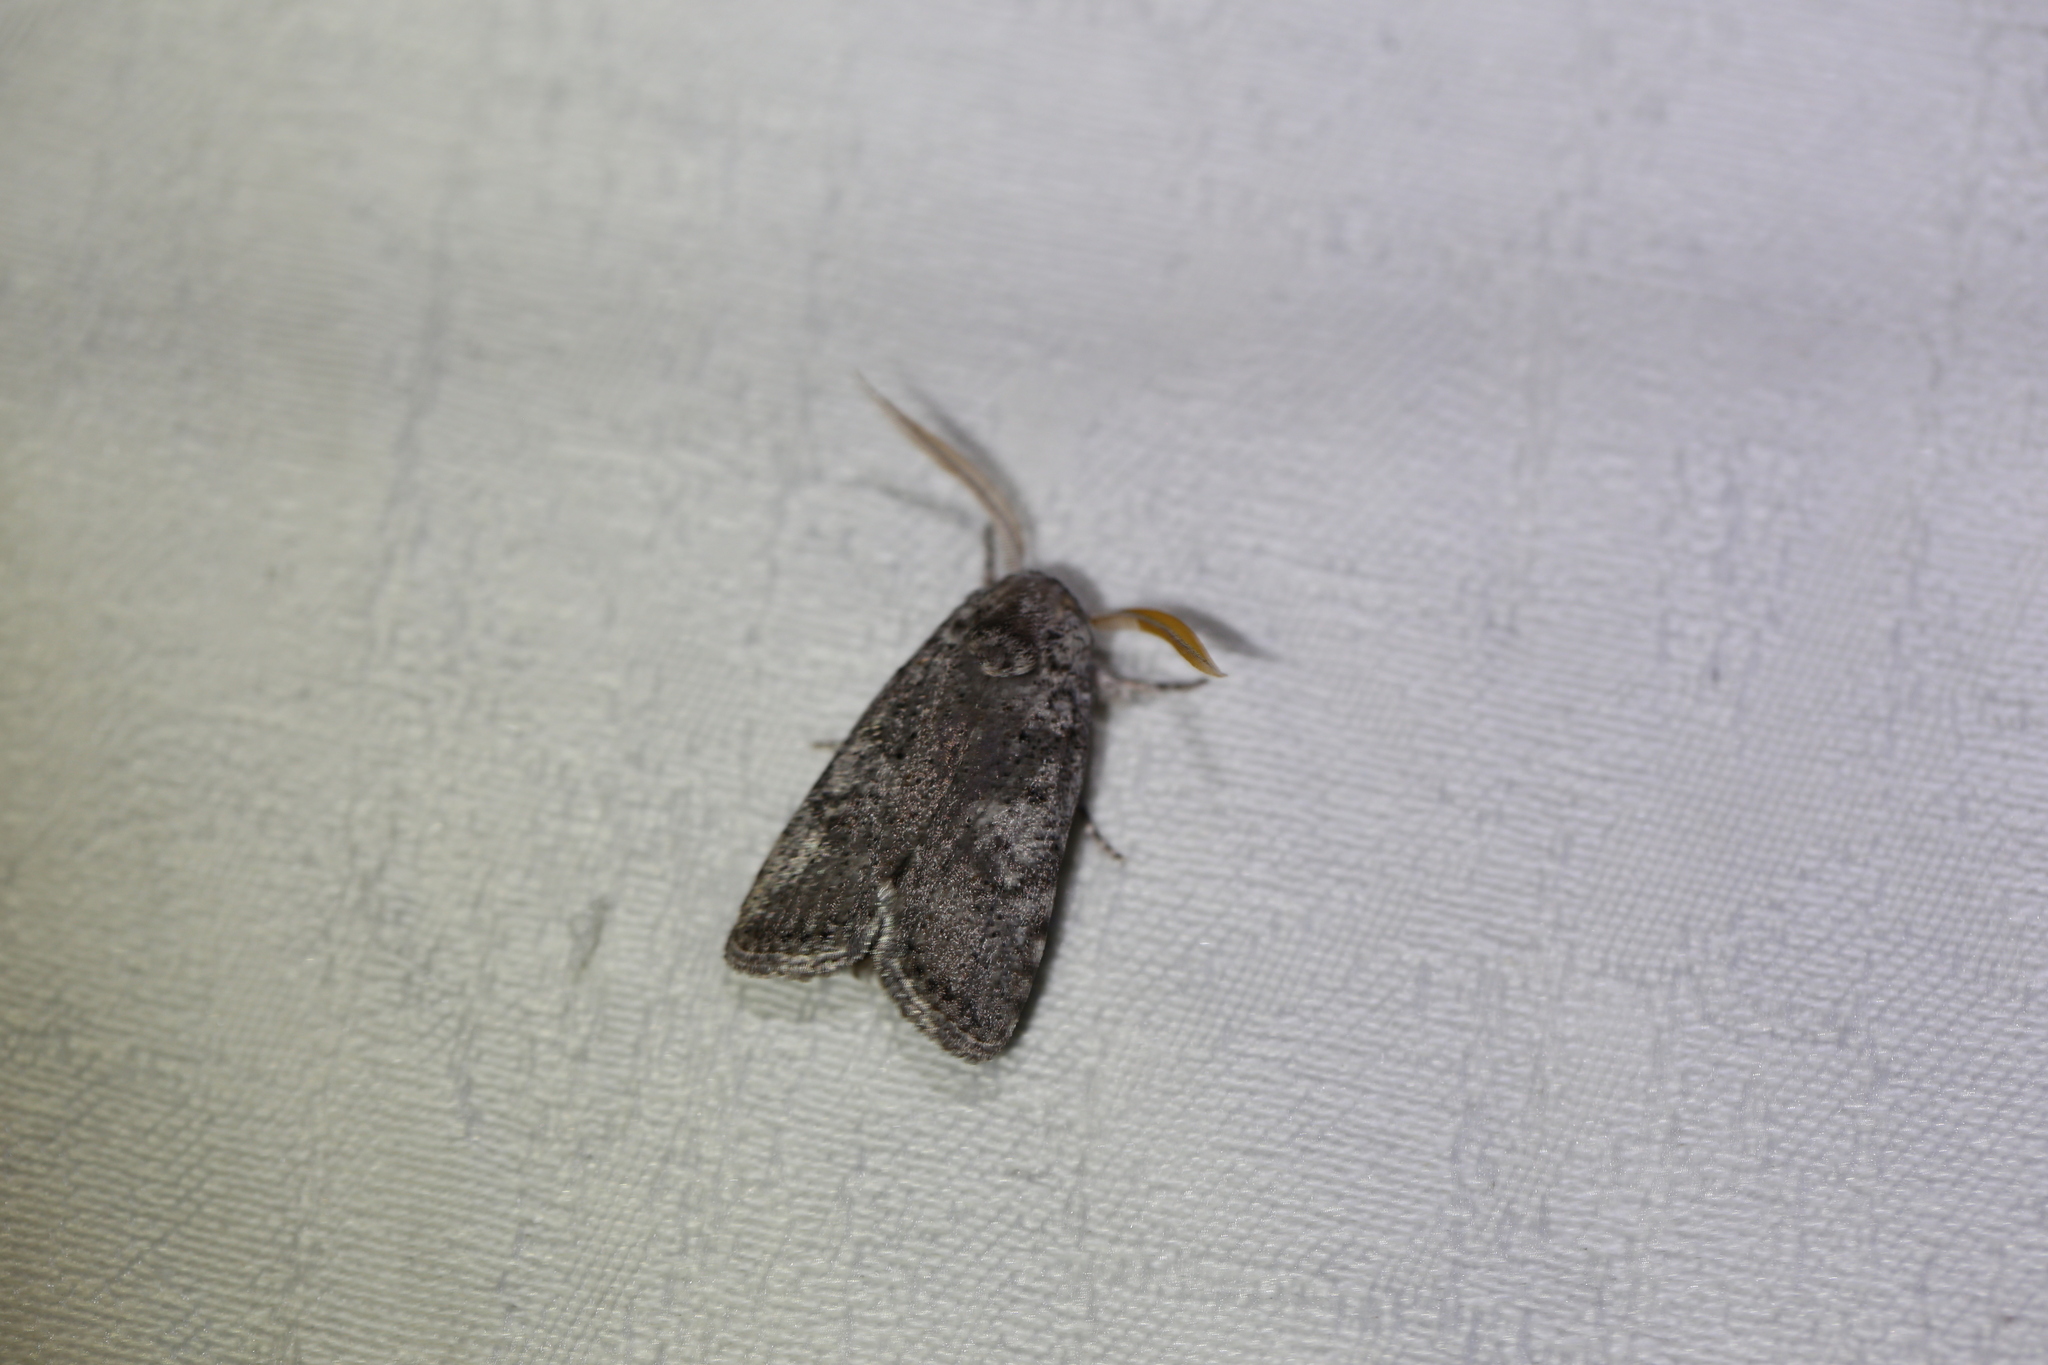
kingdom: Animalia
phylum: Arthropoda
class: Insecta
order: Lepidoptera
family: Xyloryctidae
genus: Cryptophasa
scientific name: Cryptophasa irrorata
